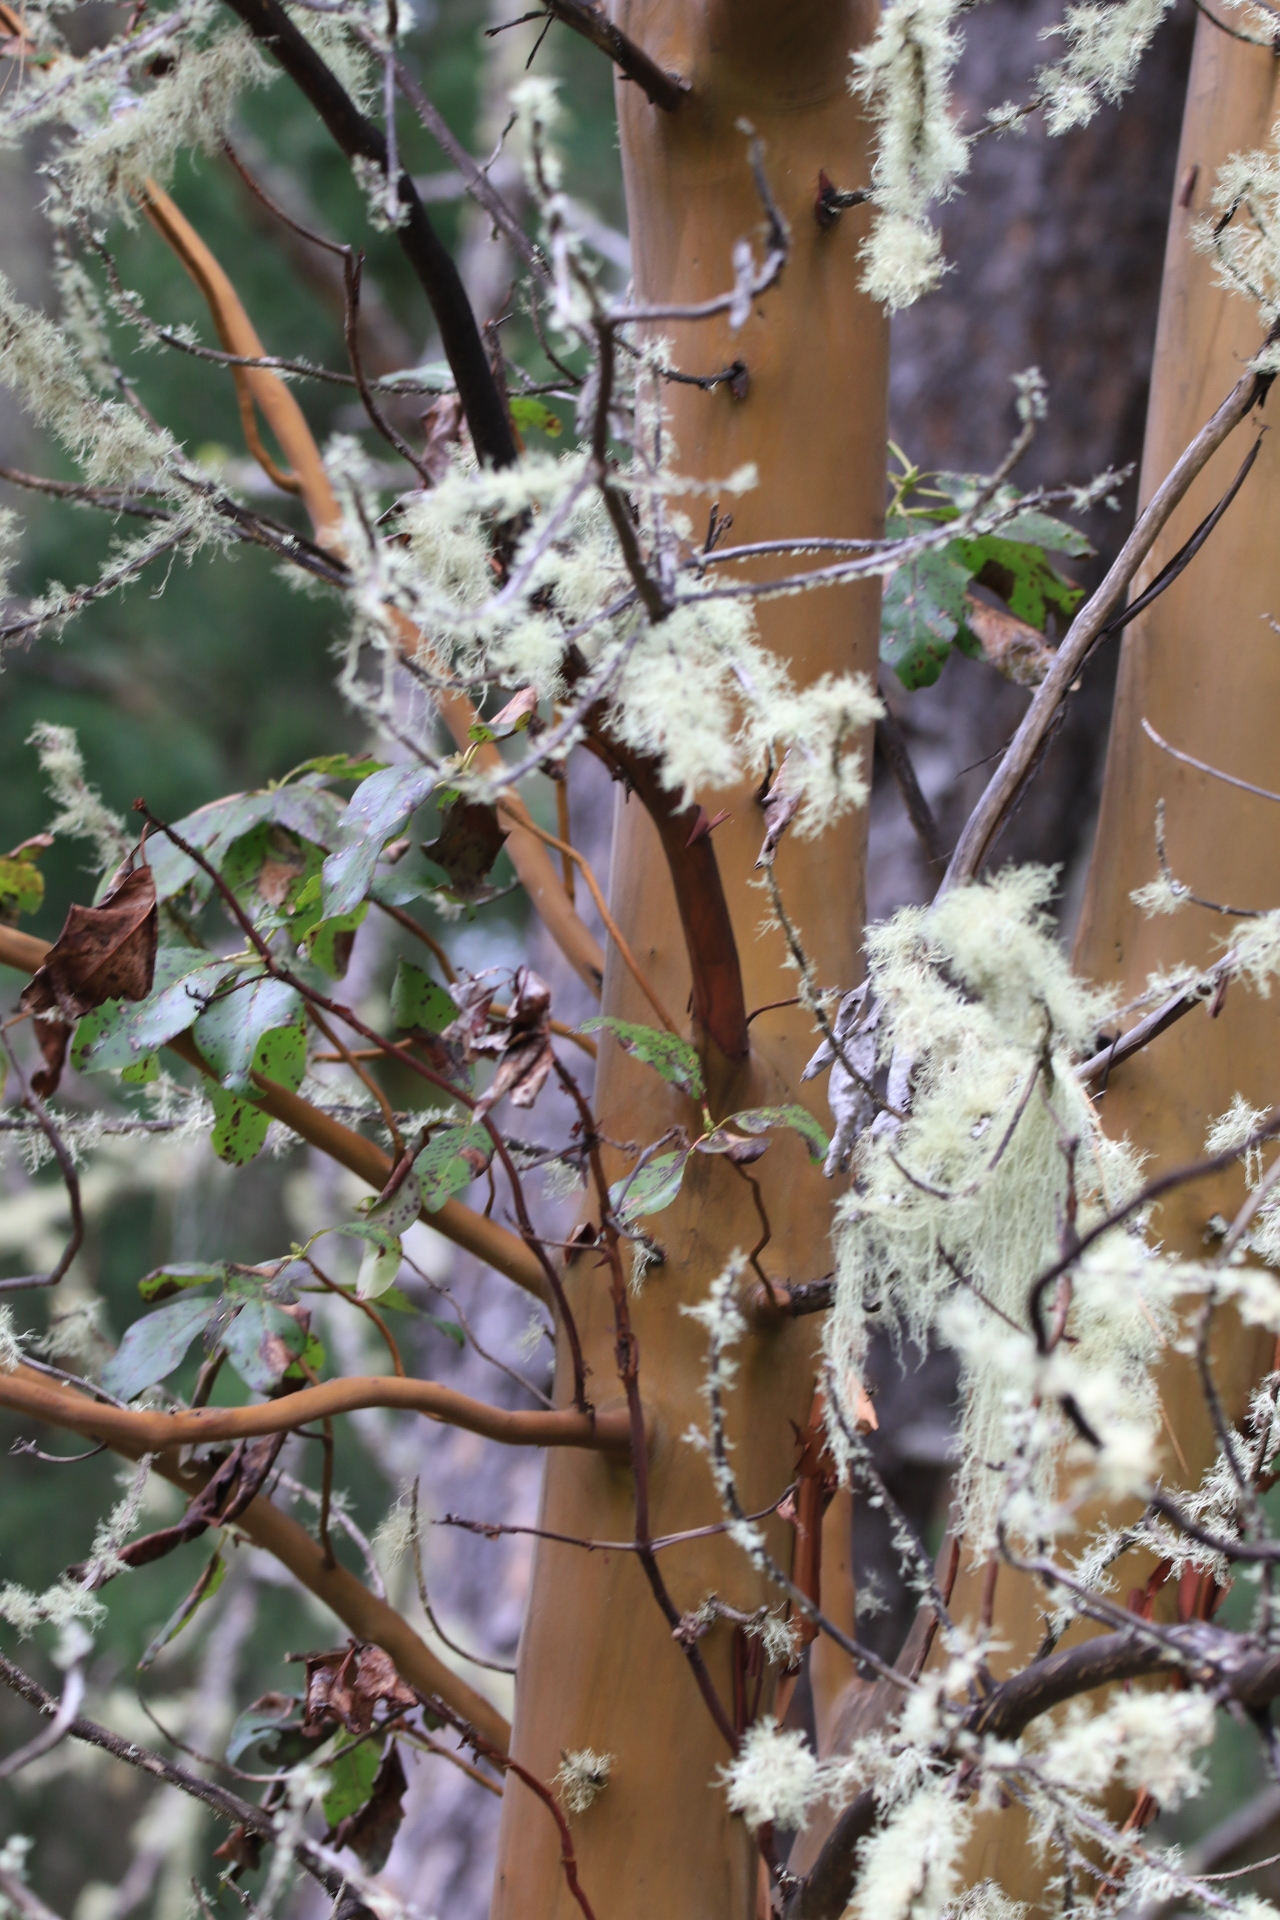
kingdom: Plantae
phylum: Tracheophyta
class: Magnoliopsida
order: Ericales
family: Ericaceae
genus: Arbutus
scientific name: Arbutus menziesii
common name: Pacific madrone
